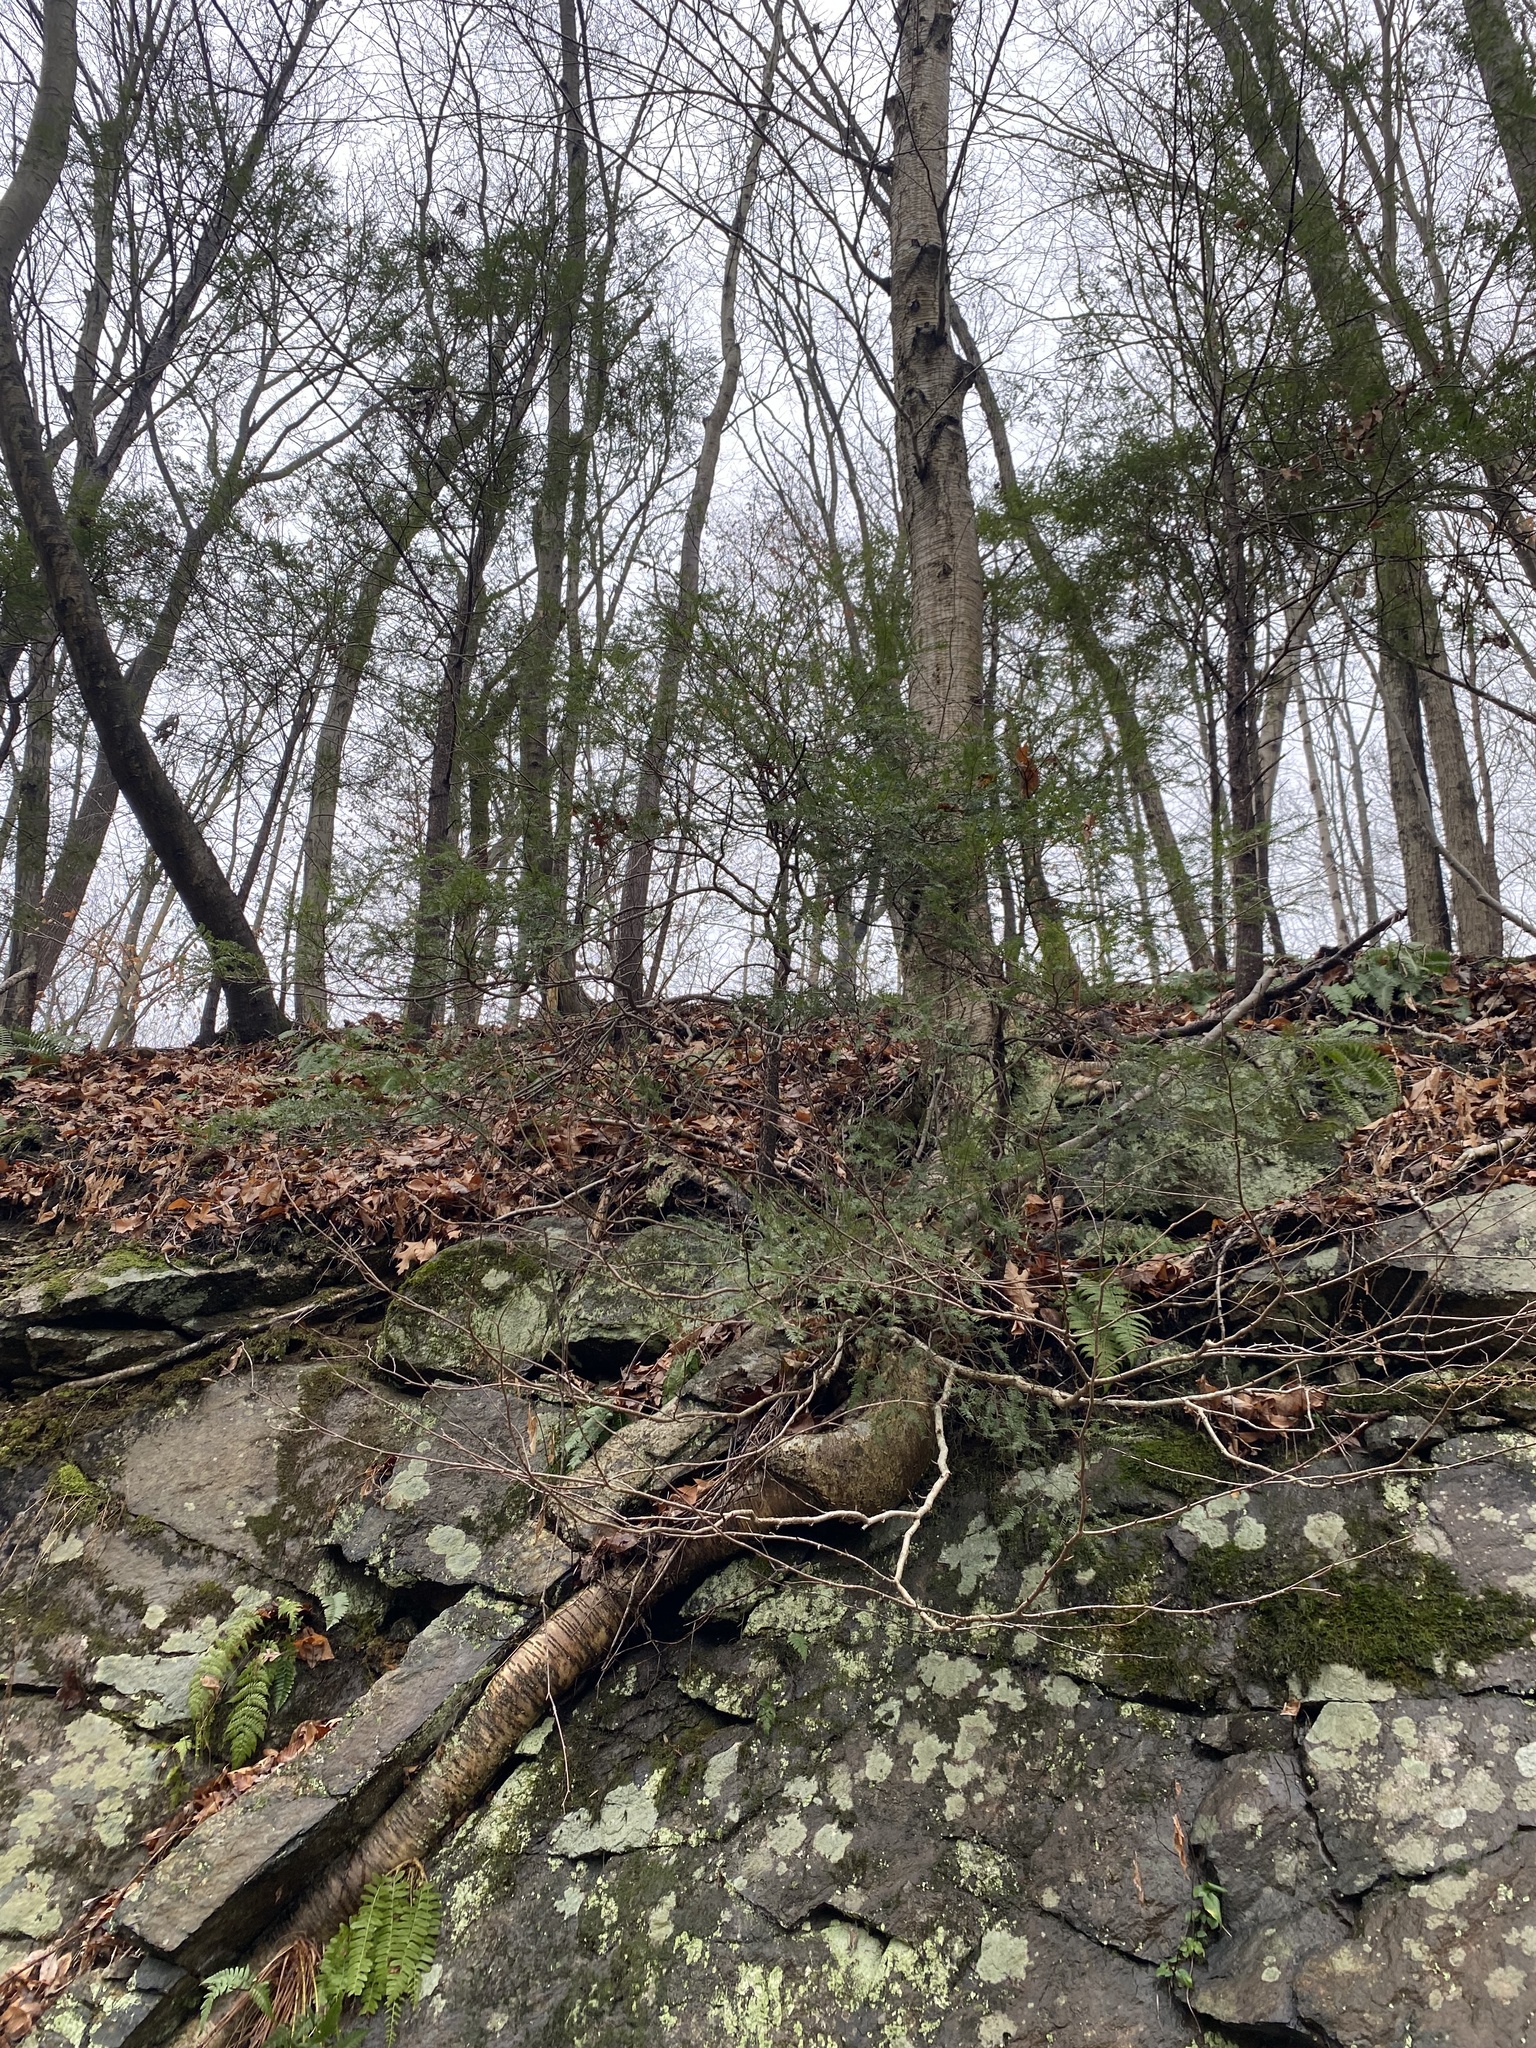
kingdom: Plantae
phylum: Tracheophyta
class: Pinopsida
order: Pinales
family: Pinaceae
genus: Tsuga
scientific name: Tsuga canadensis
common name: Eastern hemlock
